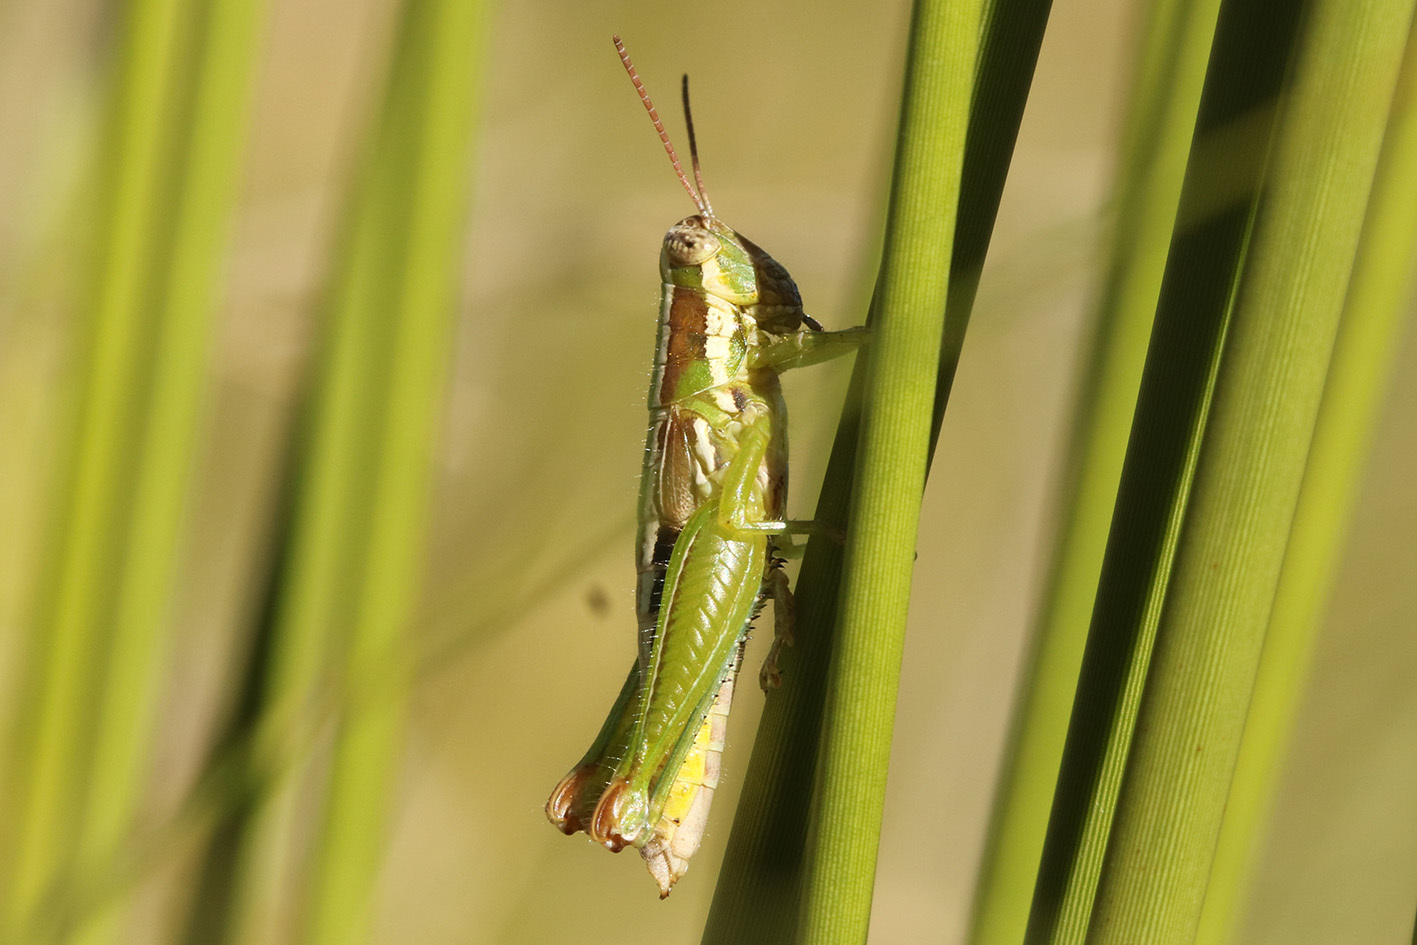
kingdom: Animalia
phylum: Arthropoda
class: Insecta
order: Orthoptera
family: Acrididae
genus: Neopedies
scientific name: Neopedies brunneri
